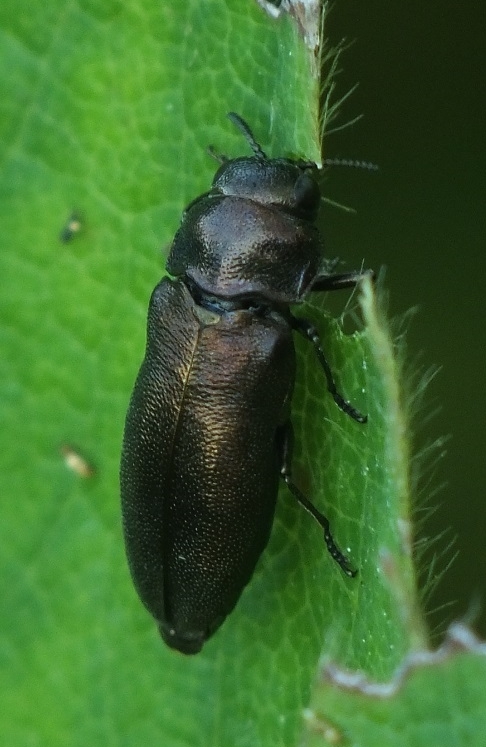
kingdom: Animalia
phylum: Arthropoda
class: Insecta
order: Coleoptera
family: Buprestidae
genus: Coraebus
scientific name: Coraebus elatus
